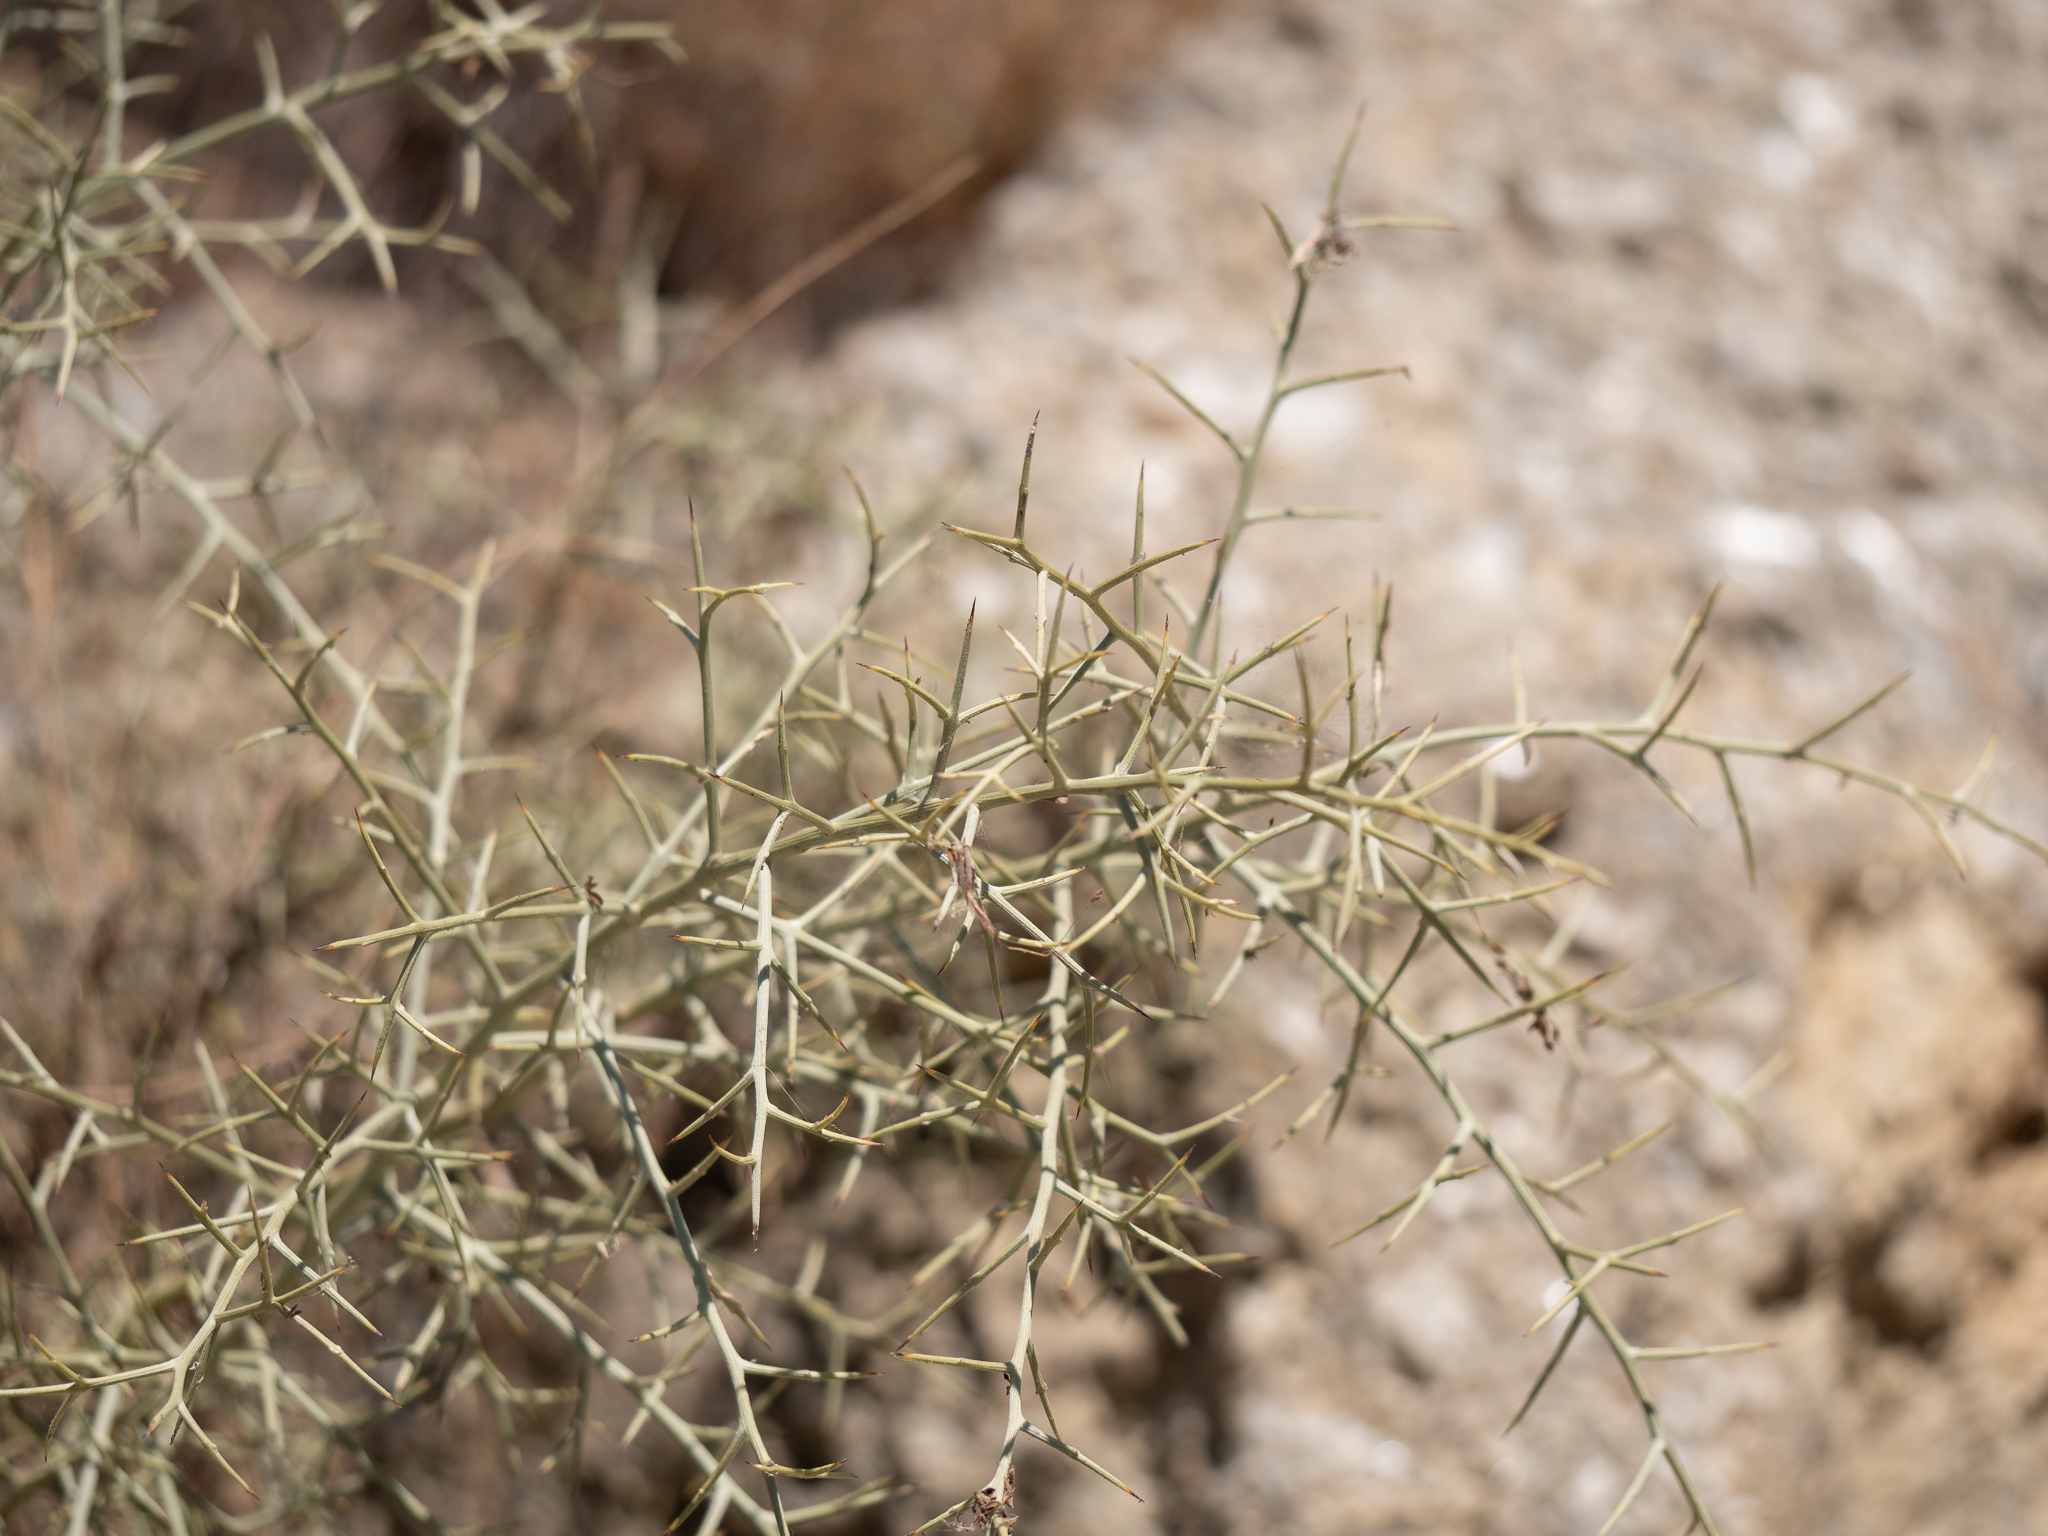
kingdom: Plantae
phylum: Tracheophyta
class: Magnoliopsida
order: Fabales
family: Fabaceae
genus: Calicotome
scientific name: Calicotome villosa
